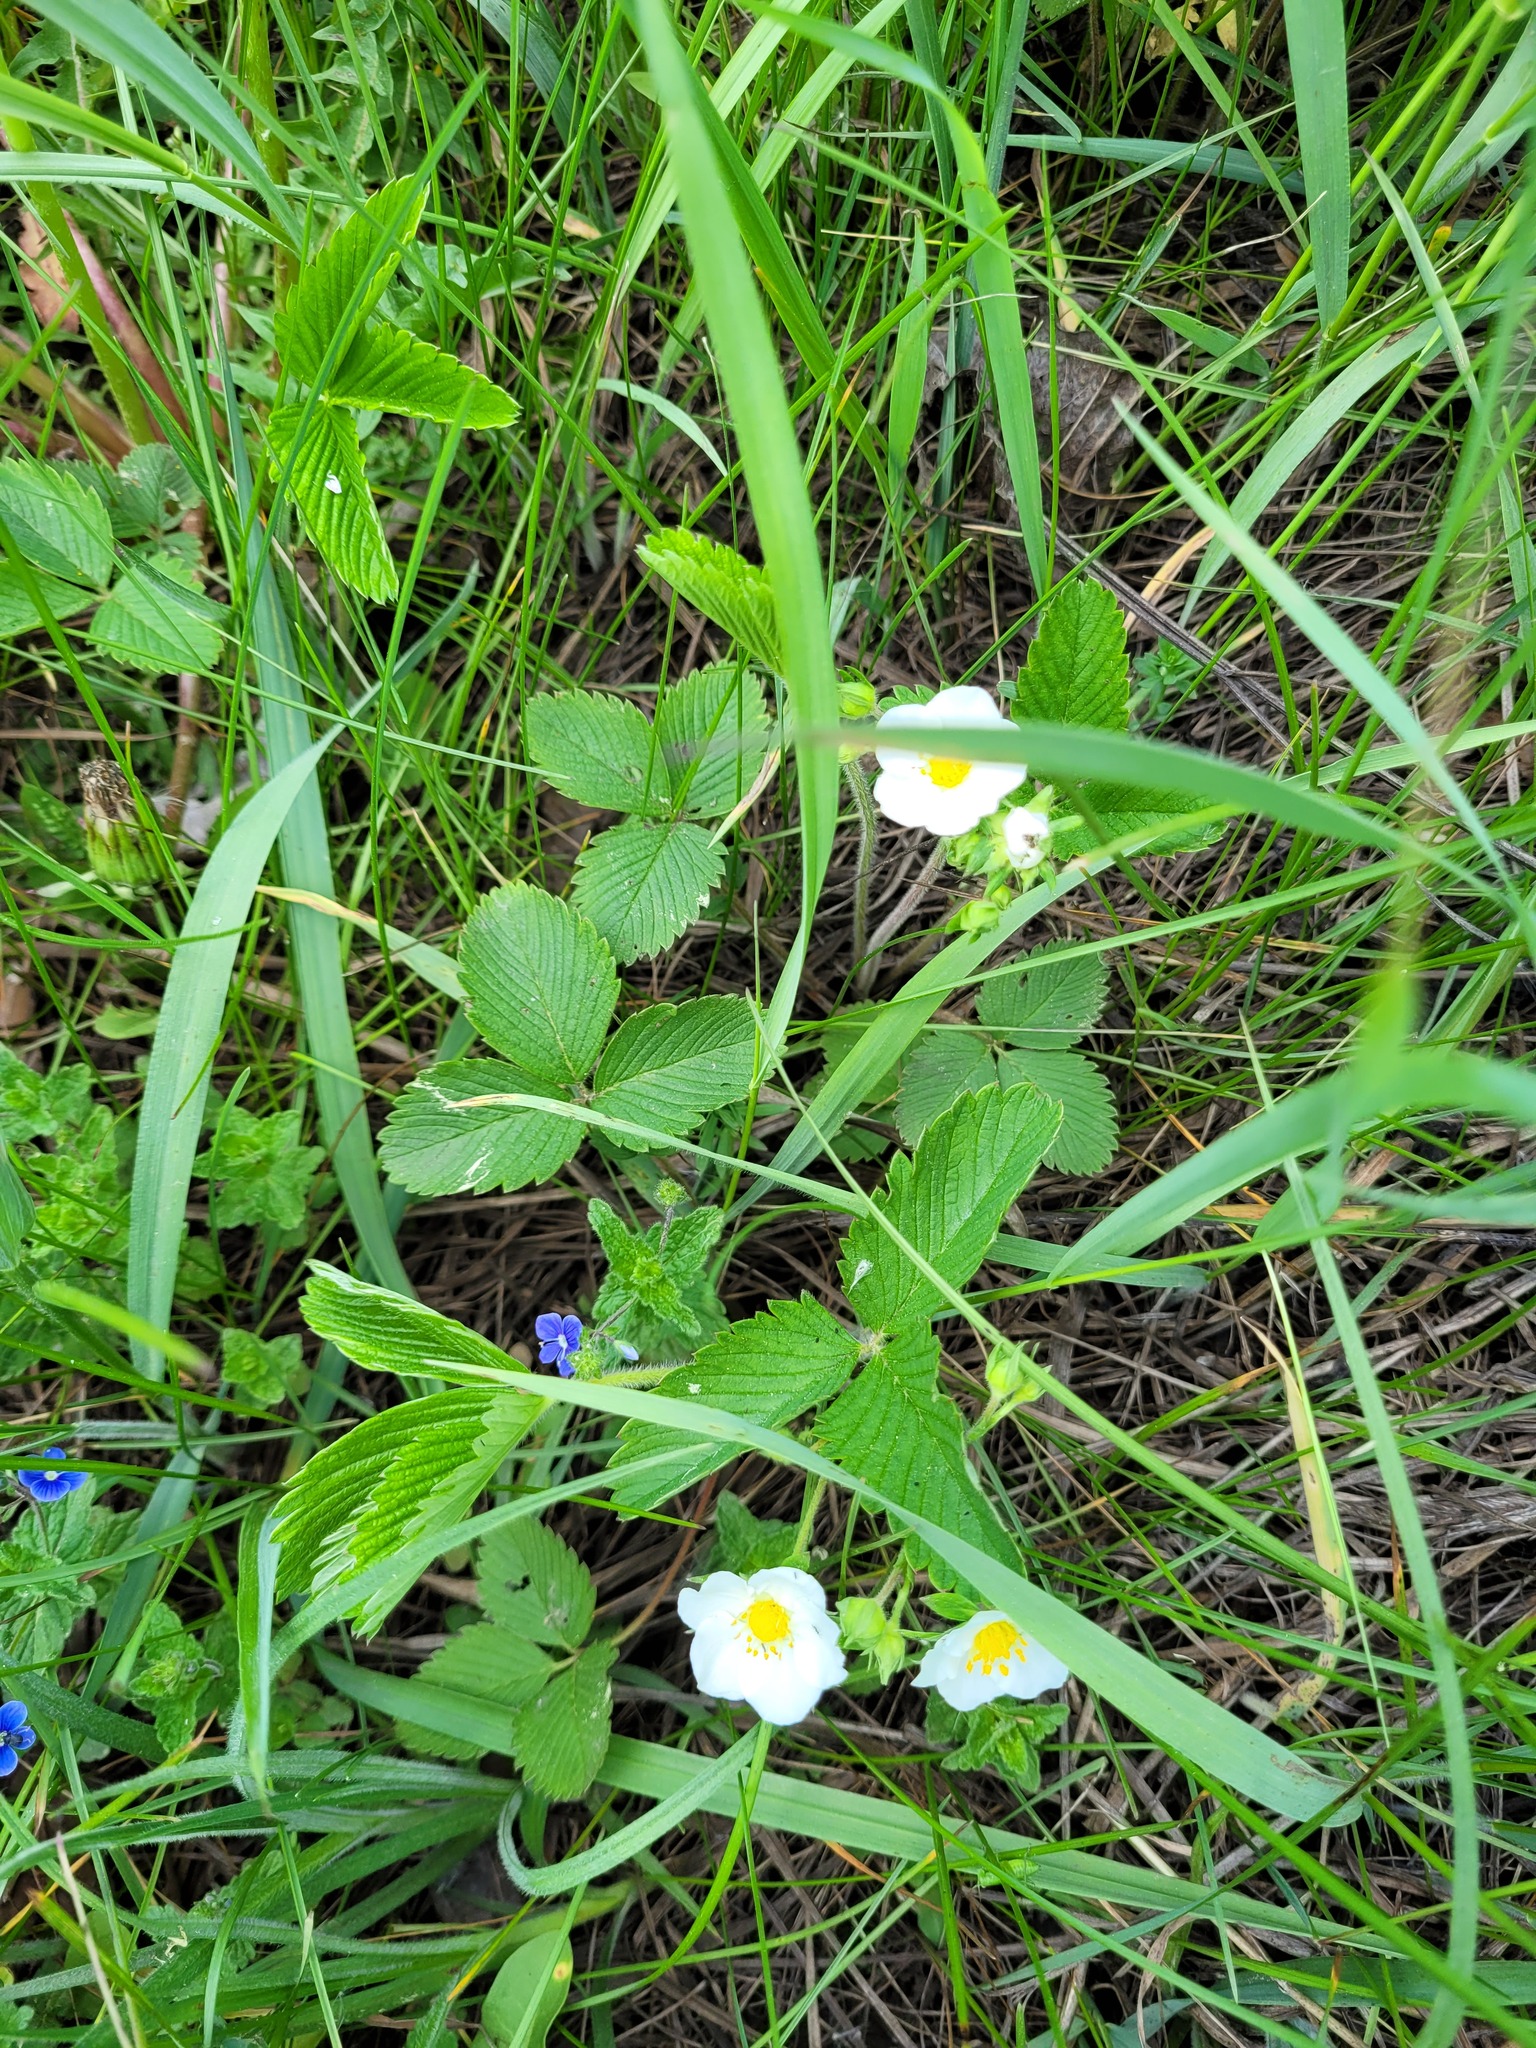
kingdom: Plantae
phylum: Tracheophyta
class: Magnoliopsida
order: Rosales
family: Rosaceae
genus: Fragaria
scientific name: Fragaria viridis
